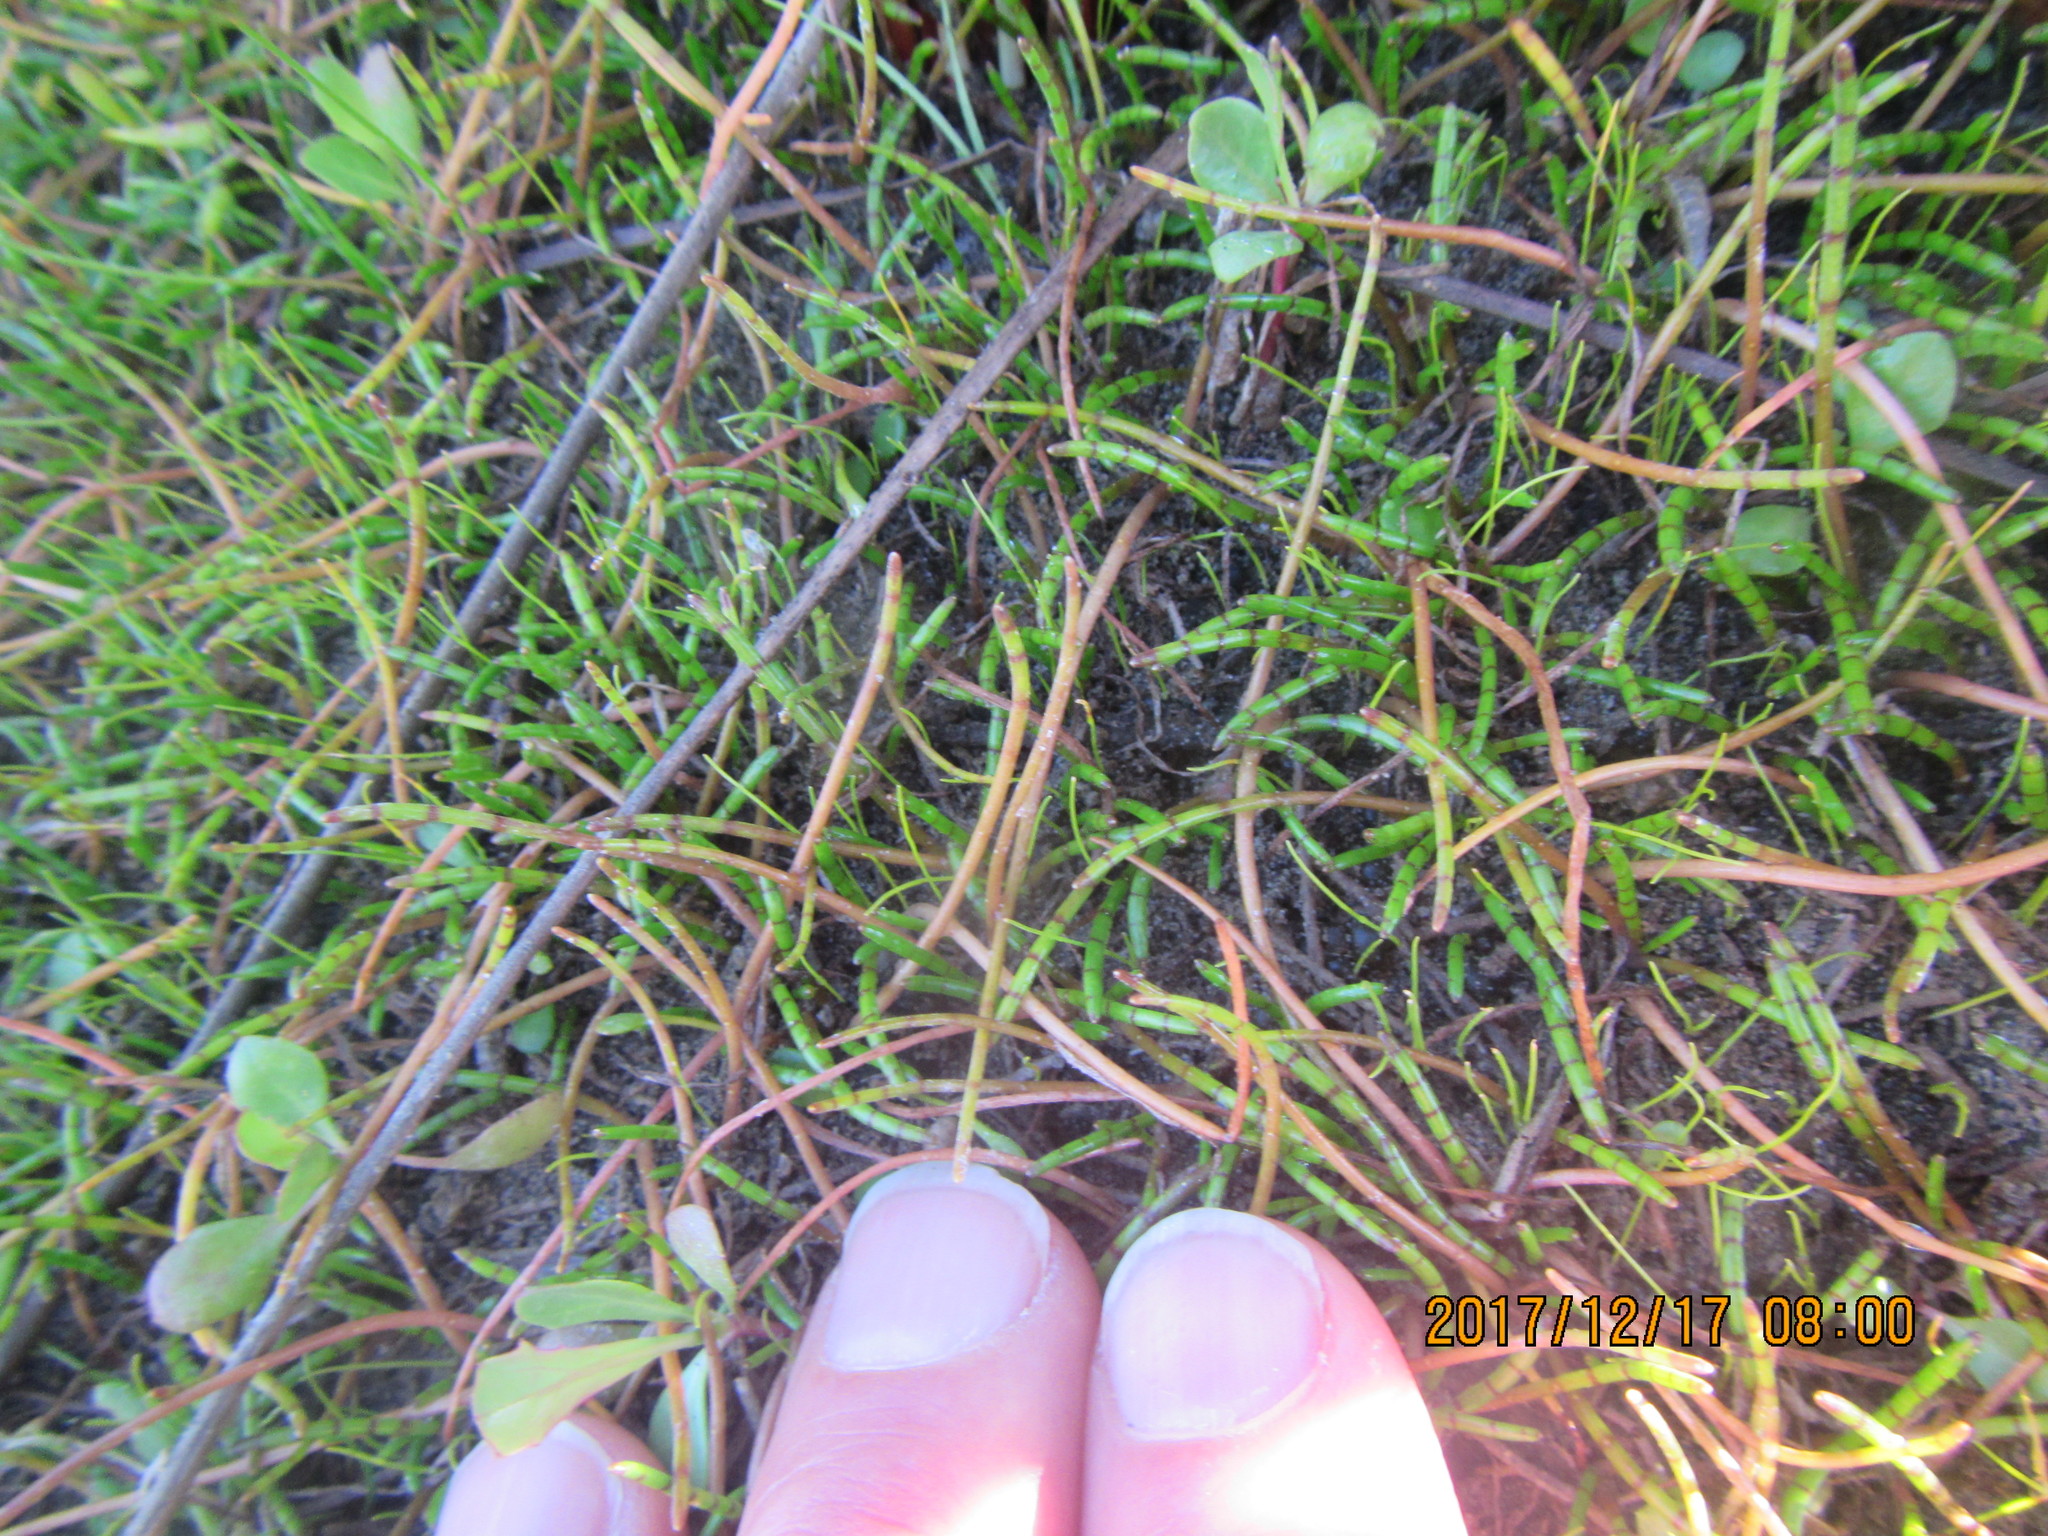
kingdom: Plantae
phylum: Tracheophyta
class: Magnoliopsida
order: Apiales
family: Apiaceae
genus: Lilaeopsis
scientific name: Lilaeopsis novae-zelandiae
